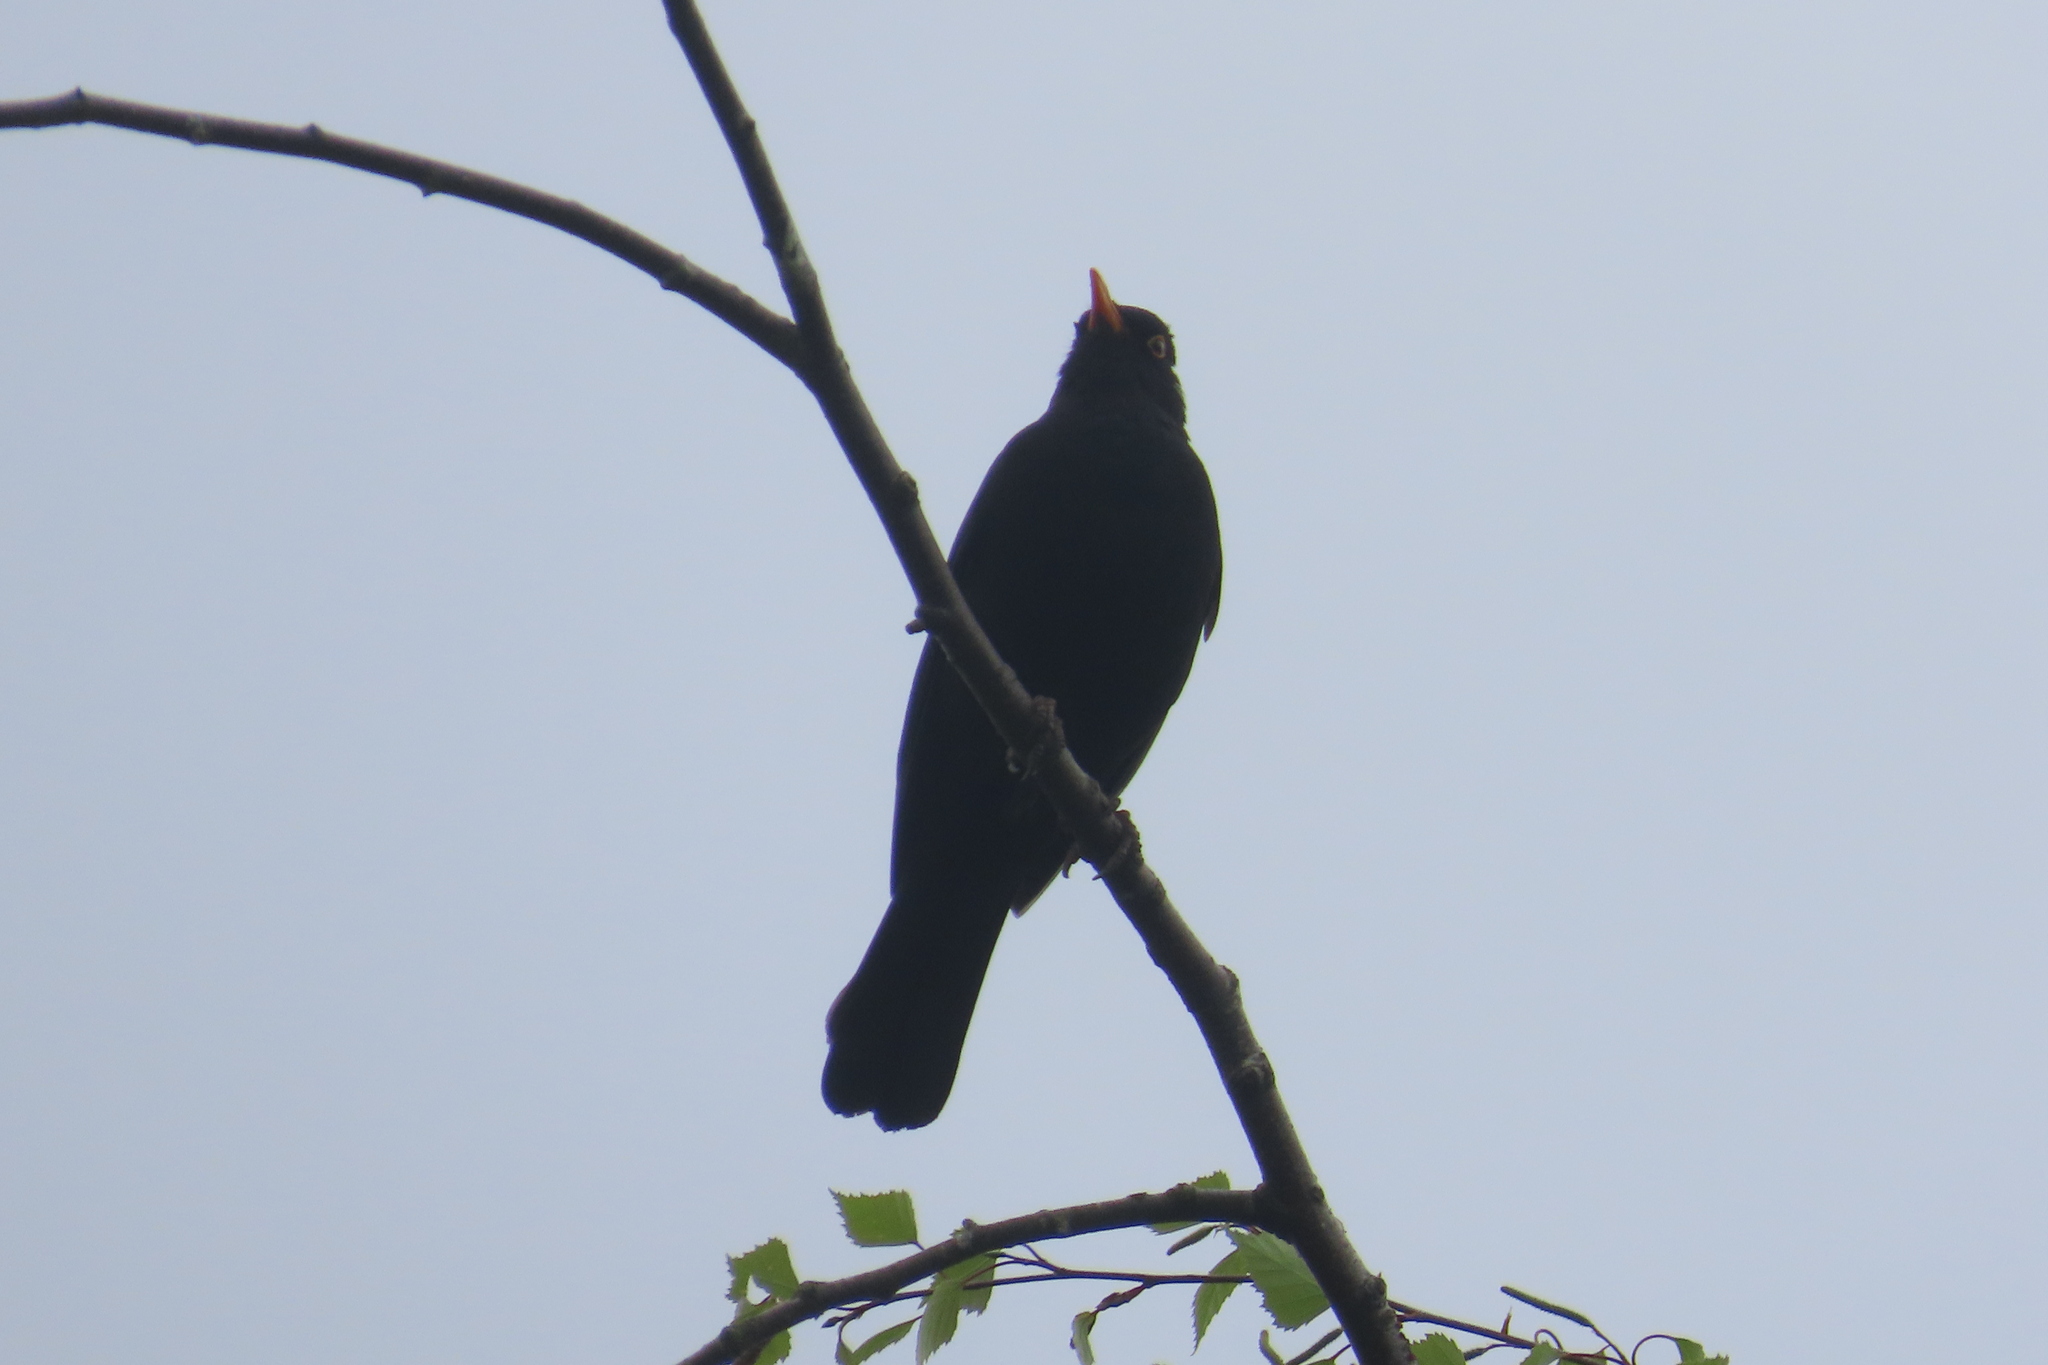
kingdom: Animalia
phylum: Chordata
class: Aves
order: Passeriformes
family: Turdidae
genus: Turdus
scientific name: Turdus merula
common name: Common blackbird
